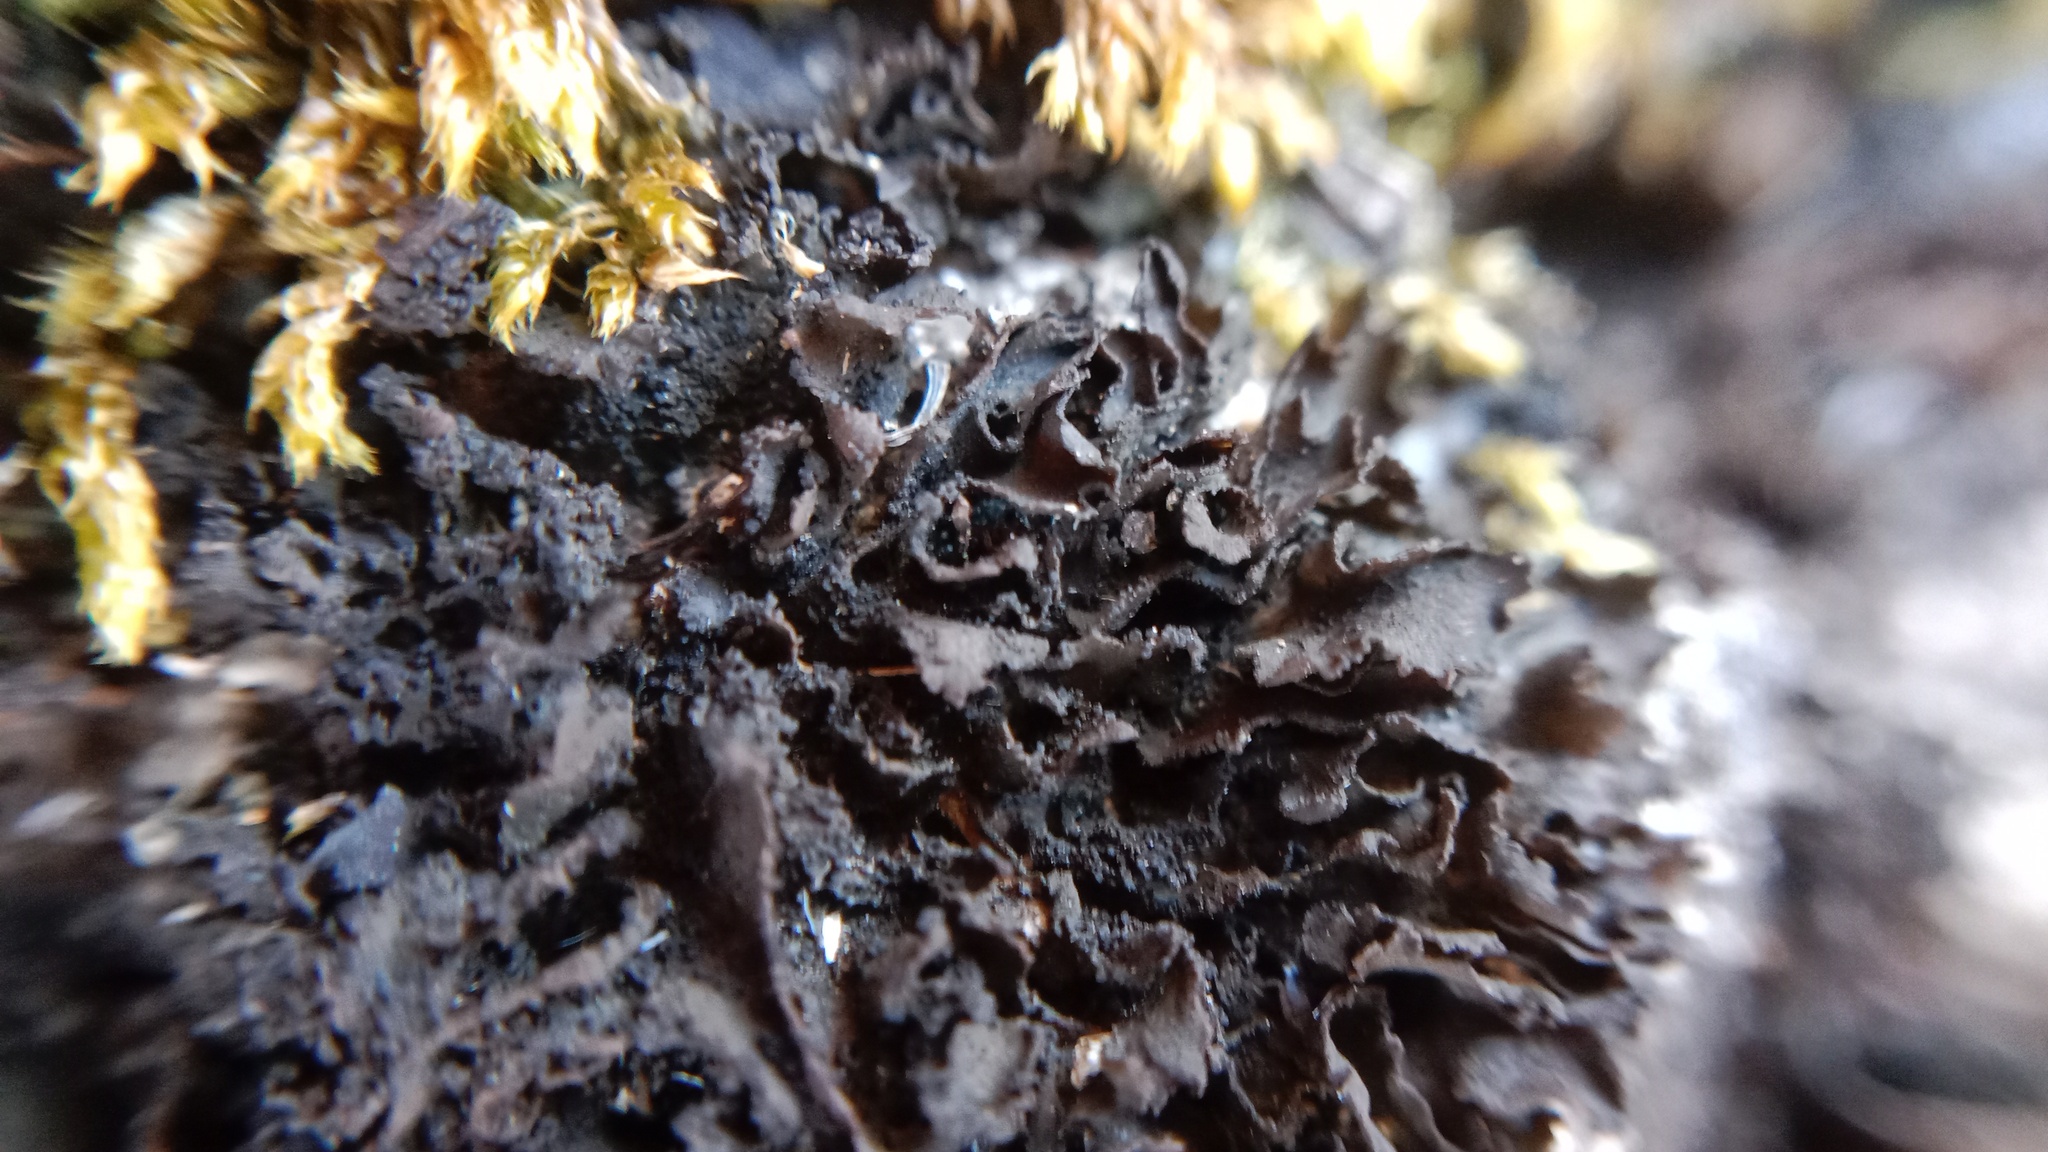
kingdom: Fungi
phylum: Ascomycota
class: Lecanoromycetes
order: Peltigerales
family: Collemataceae
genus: Lathagrium
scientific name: Lathagrium cristatum
